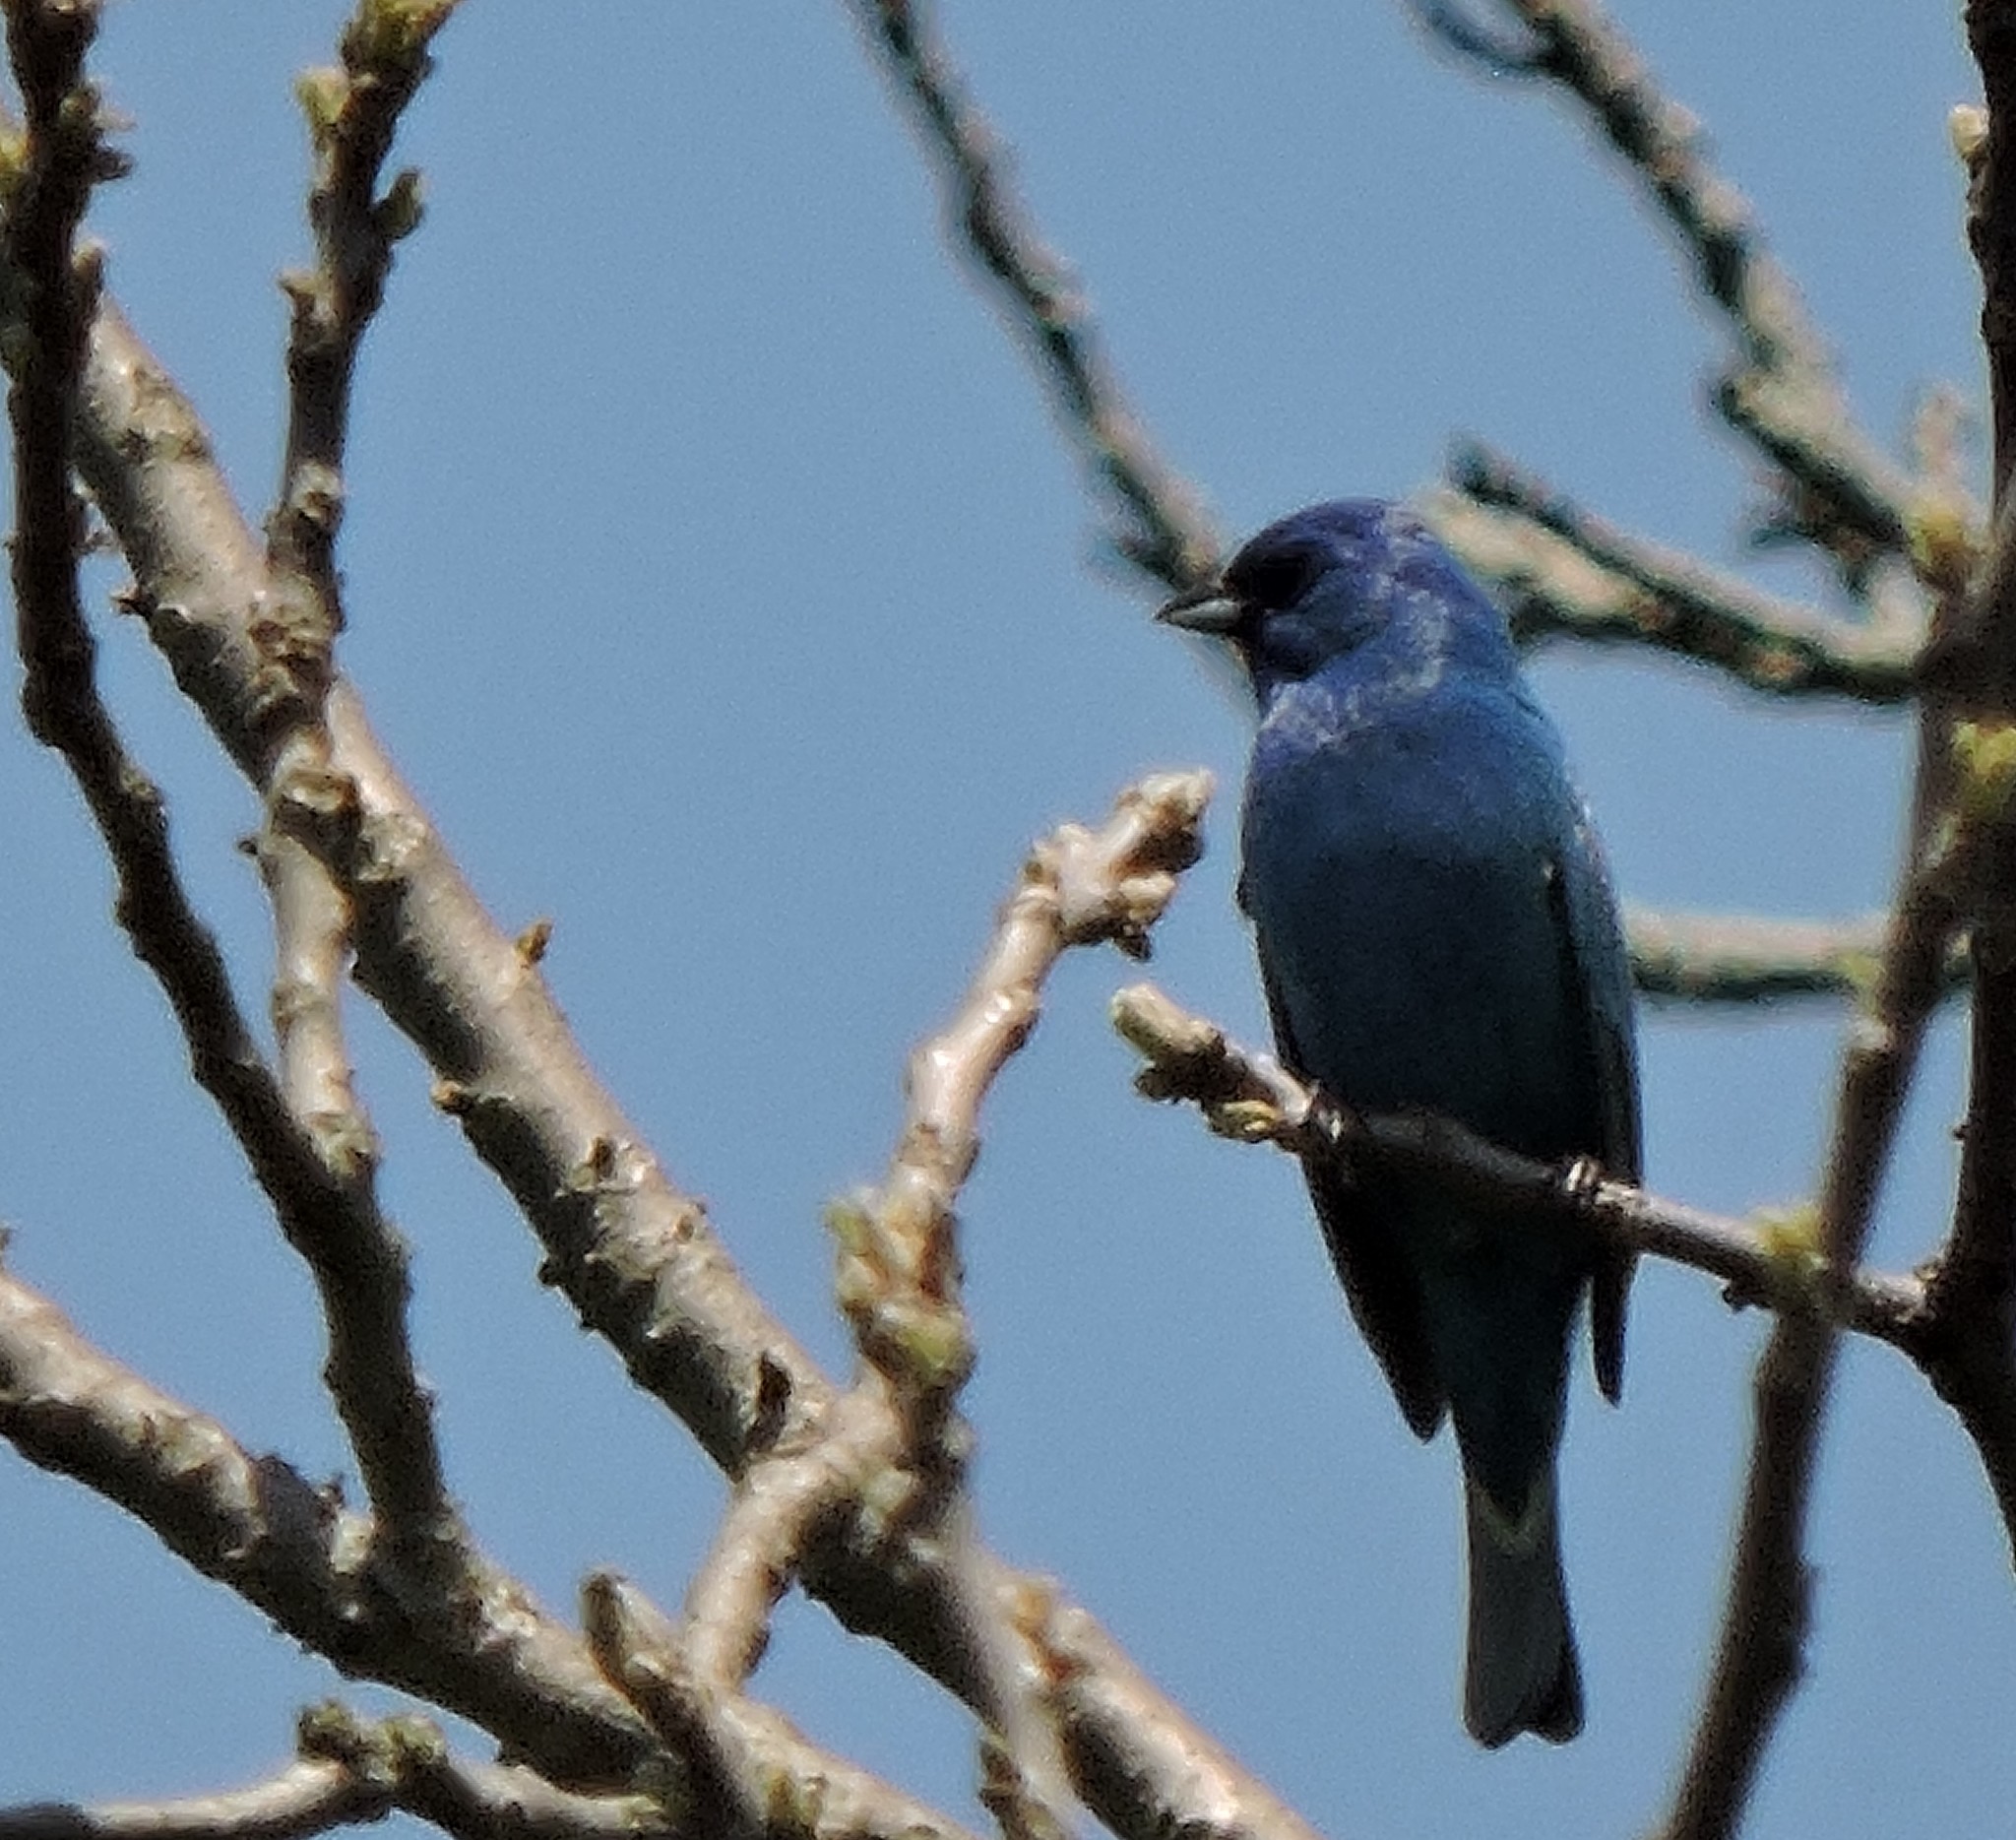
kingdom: Animalia
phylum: Chordata
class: Aves
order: Passeriformes
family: Cardinalidae
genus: Passerina
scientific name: Passerina cyanea
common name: Indigo bunting
